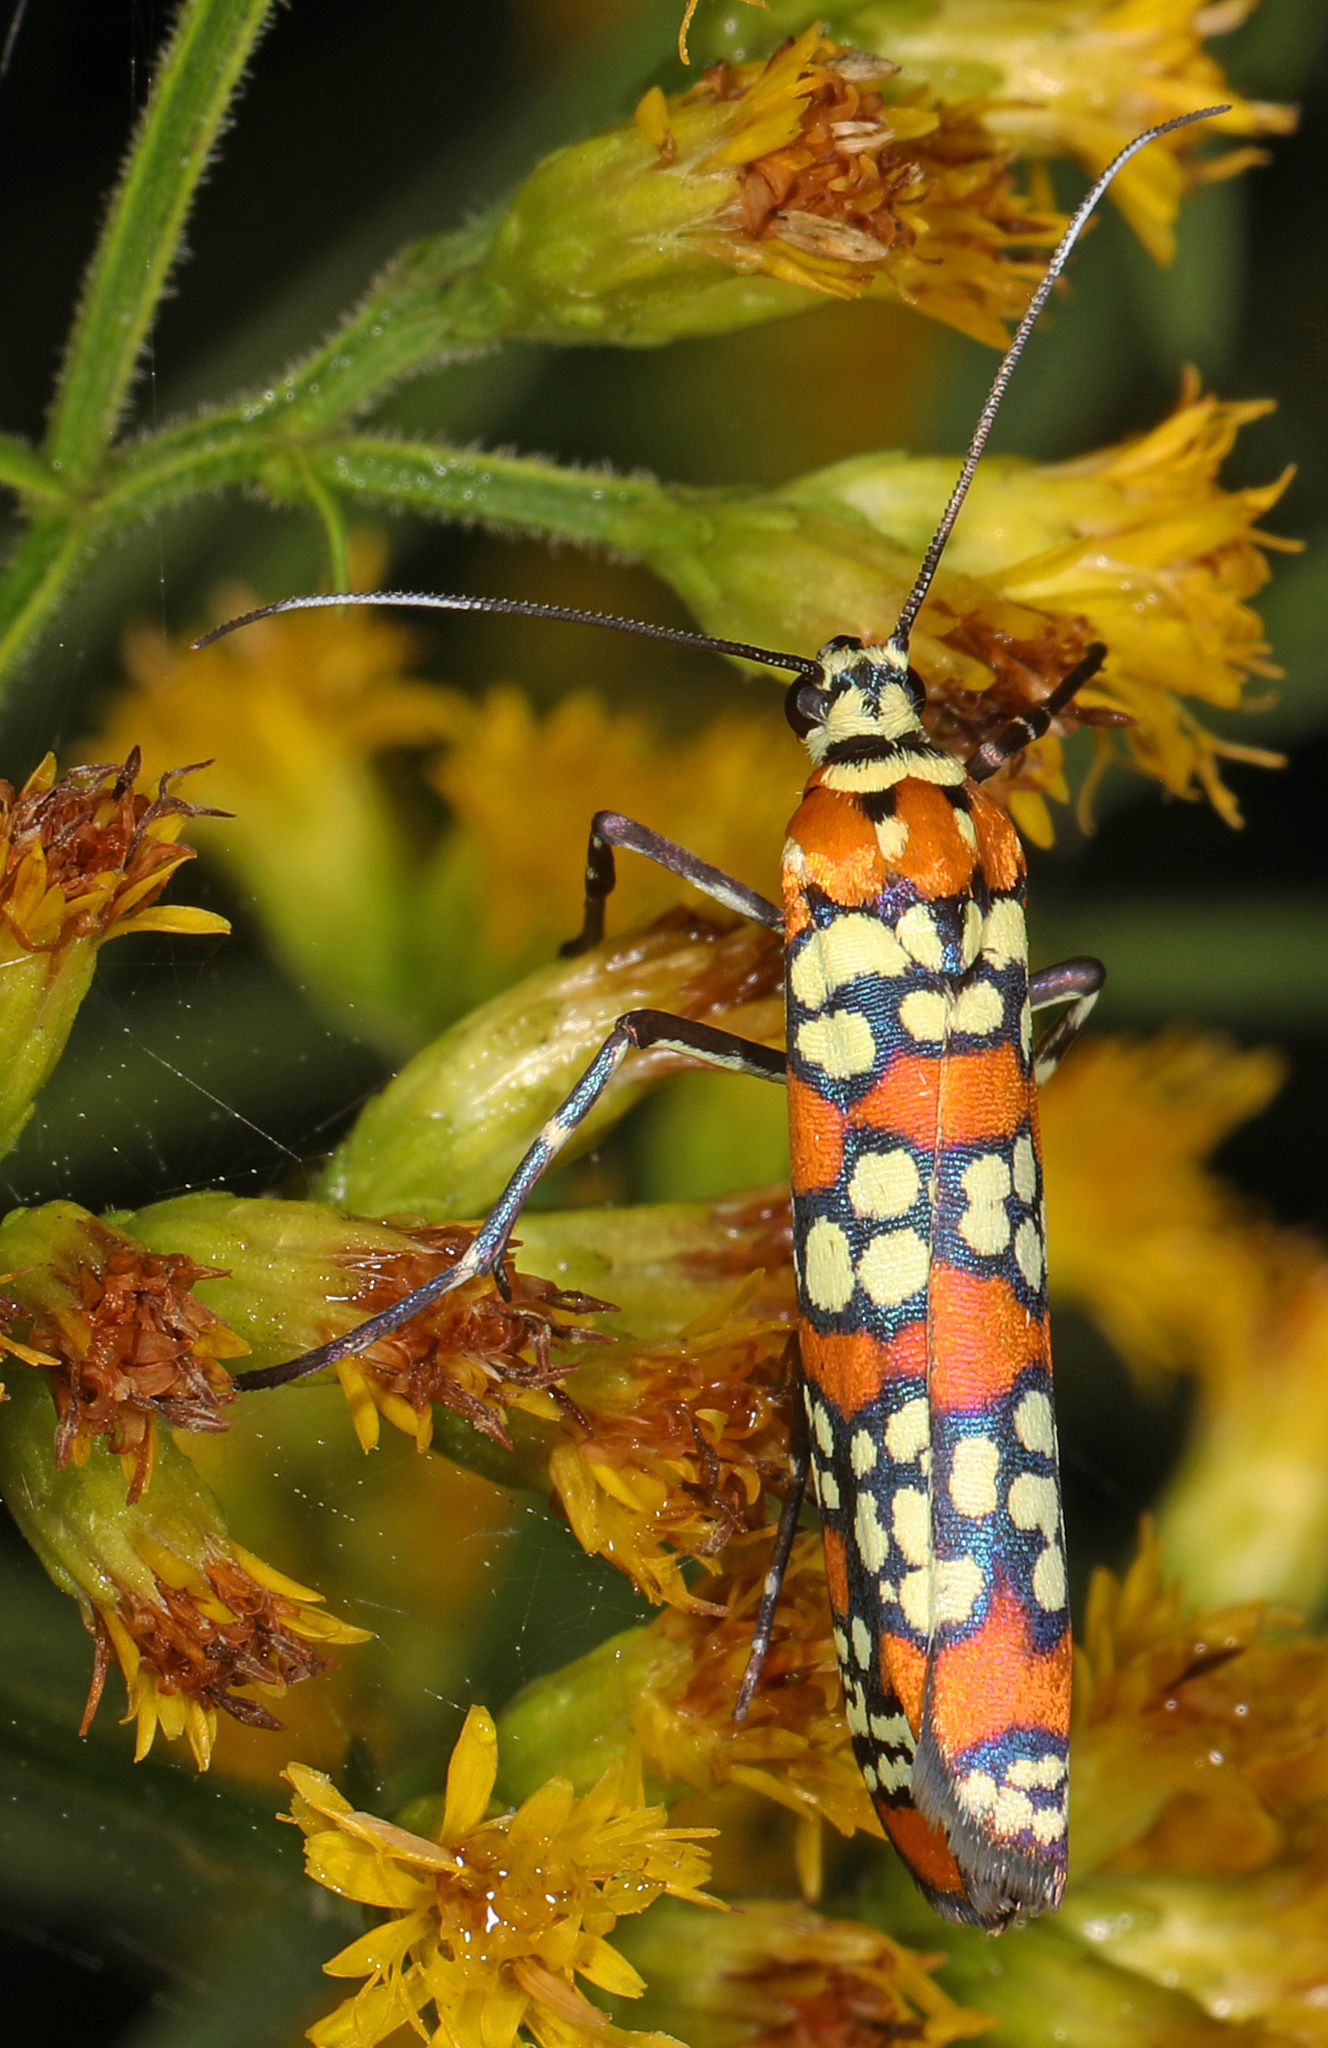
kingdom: Animalia
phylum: Arthropoda
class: Insecta
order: Lepidoptera
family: Attevidae
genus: Atteva
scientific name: Atteva punctella
